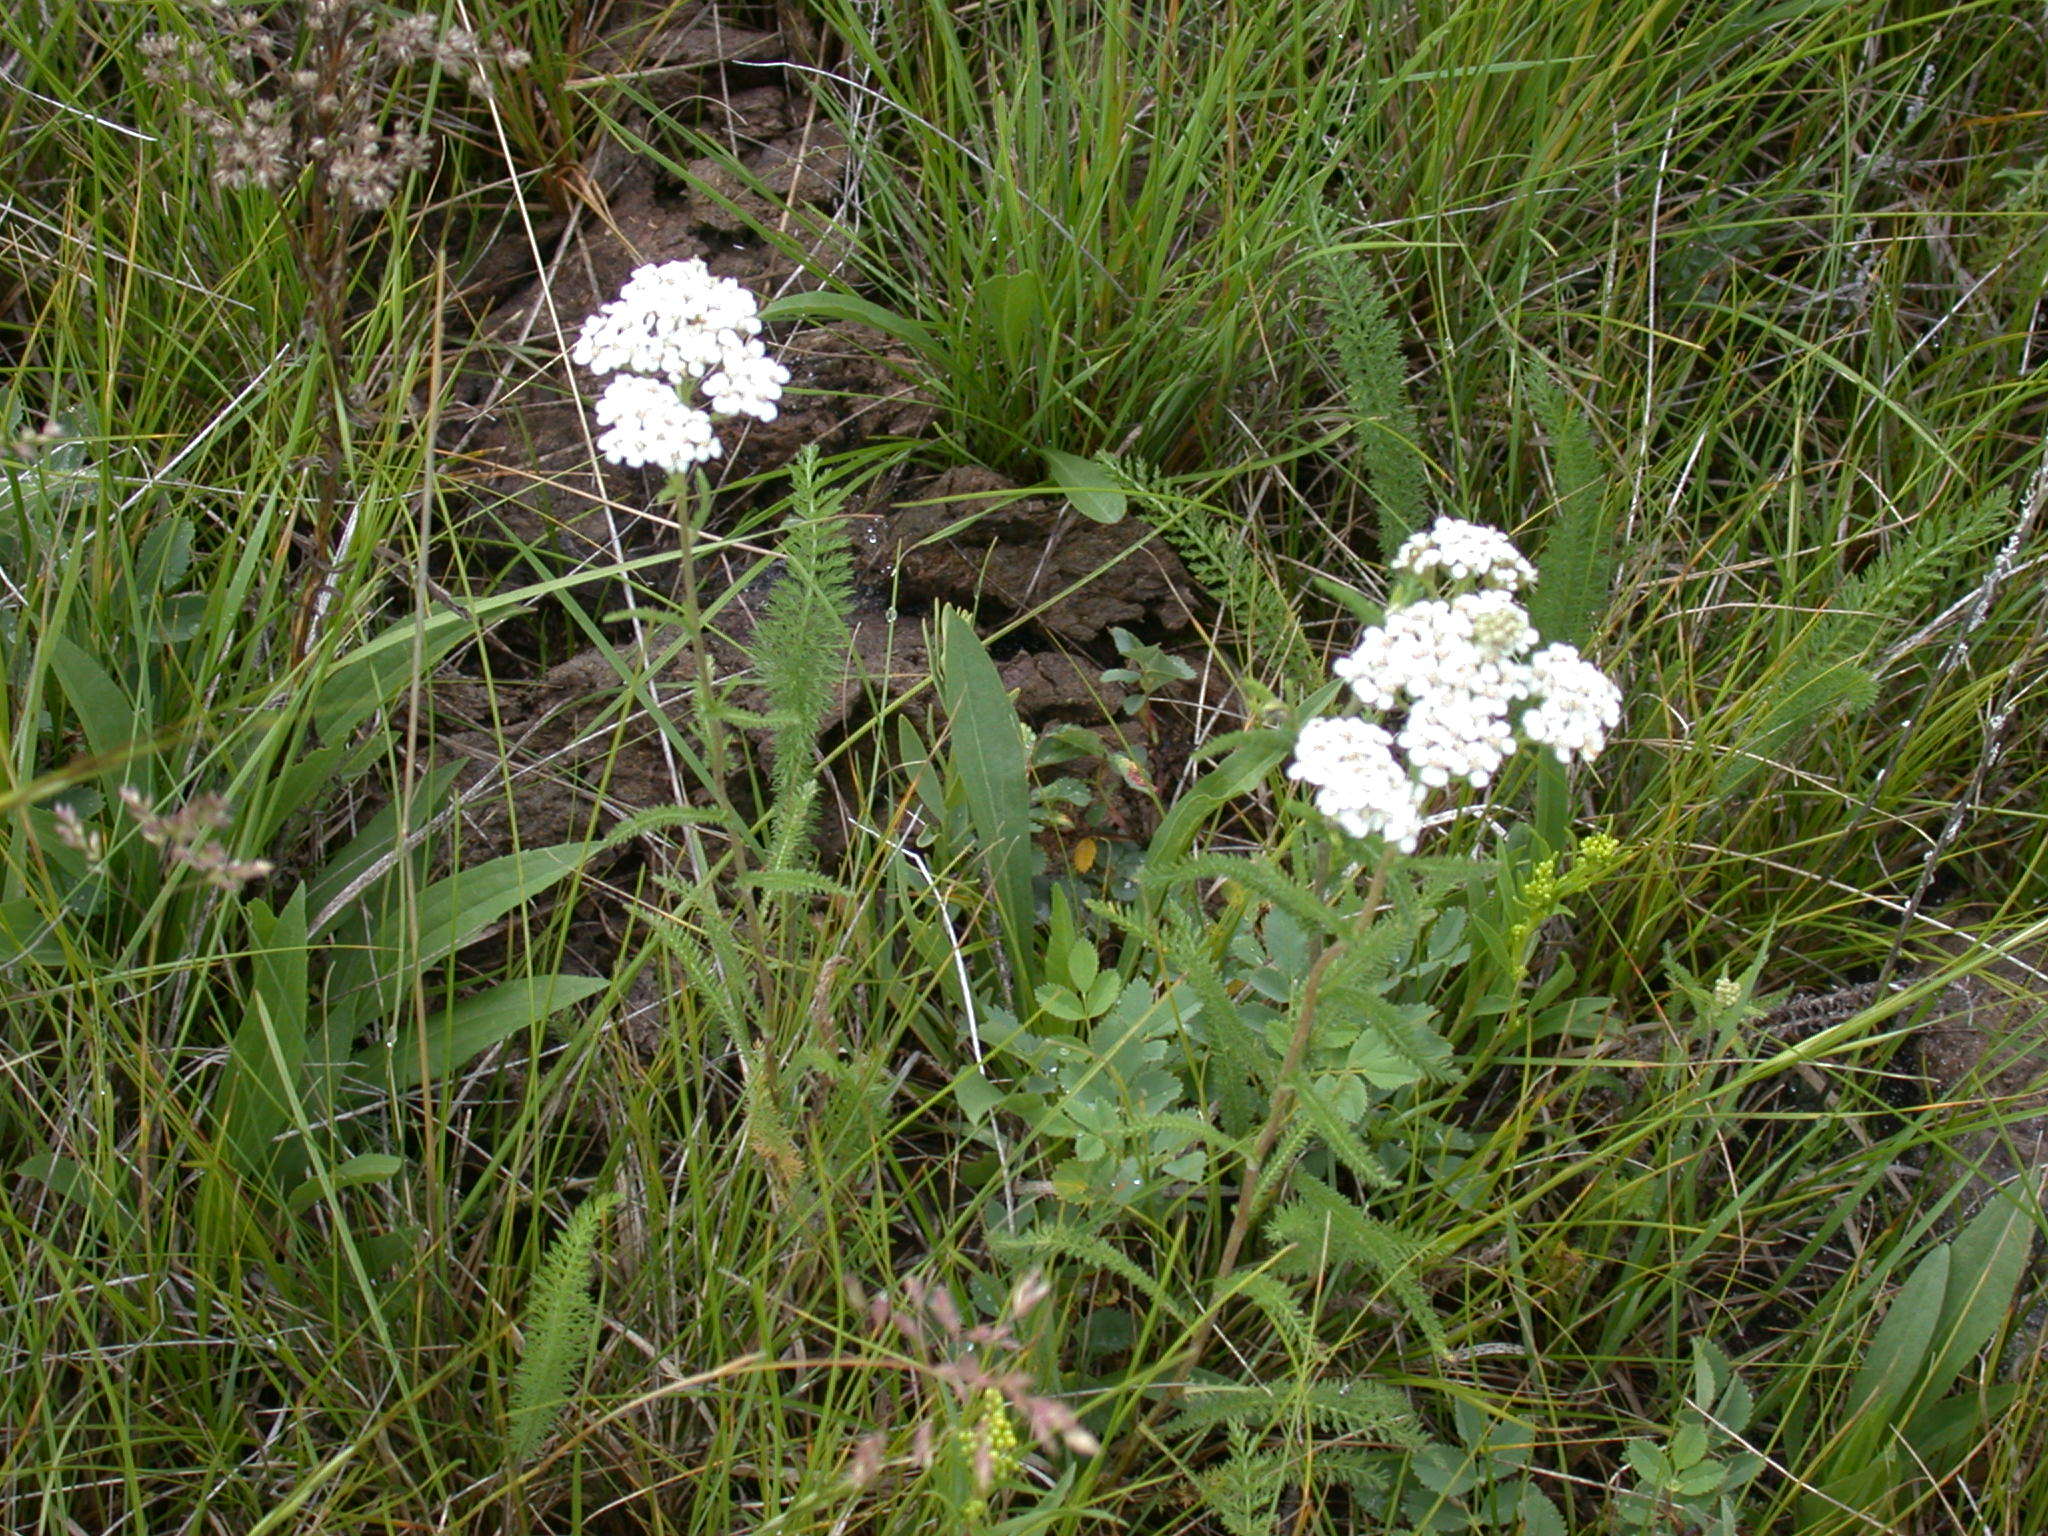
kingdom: Plantae
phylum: Tracheophyta
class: Magnoliopsida
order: Asterales
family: Asteraceae
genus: Achillea
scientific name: Achillea millefolium
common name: Yarrow
